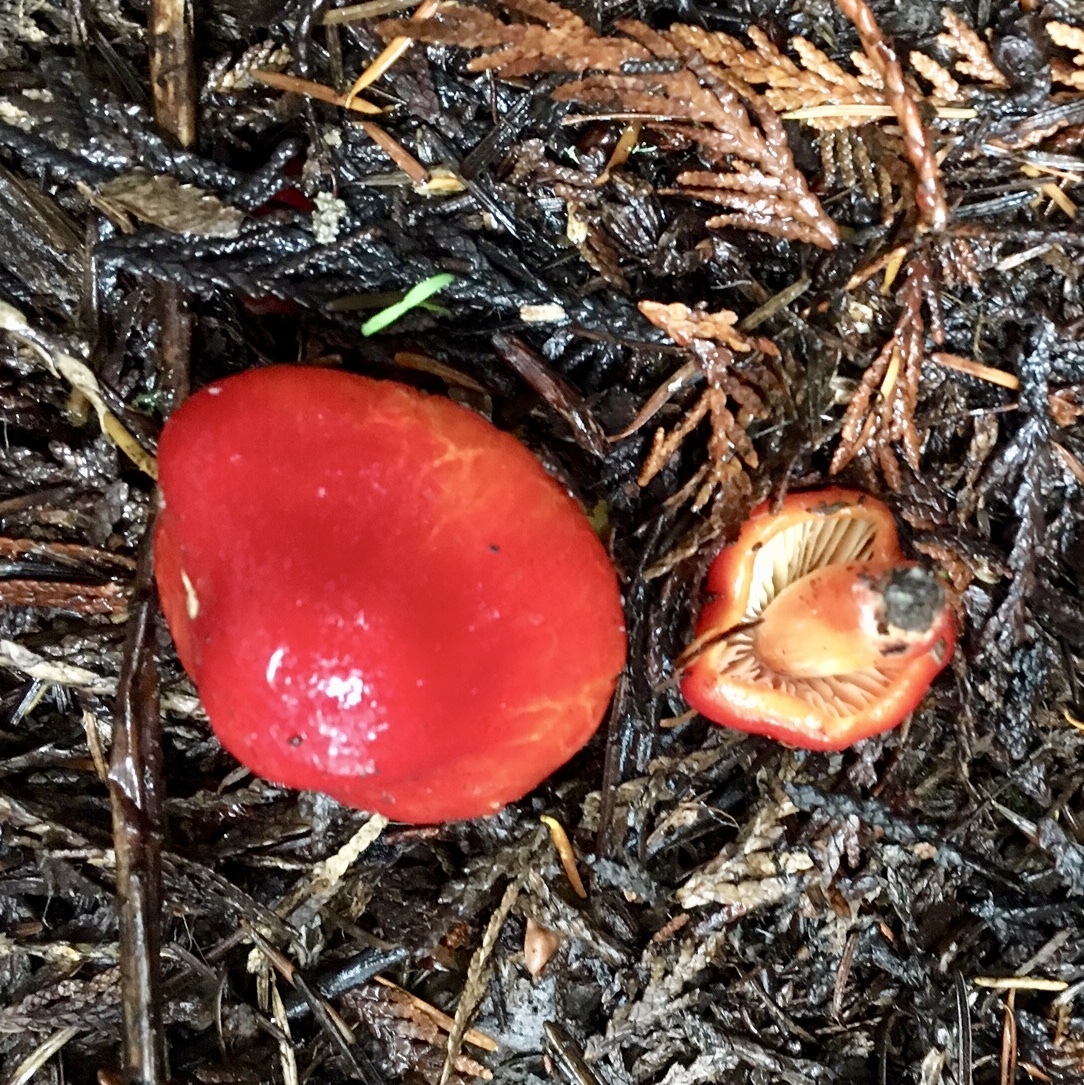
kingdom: Fungi
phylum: Basidiomycota
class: Agaricomycetes
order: Agaricales
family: Hygrophoraceae
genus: Hygrocybe
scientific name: Hygrocybe aurantiosplendens
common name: Orange waxcap
